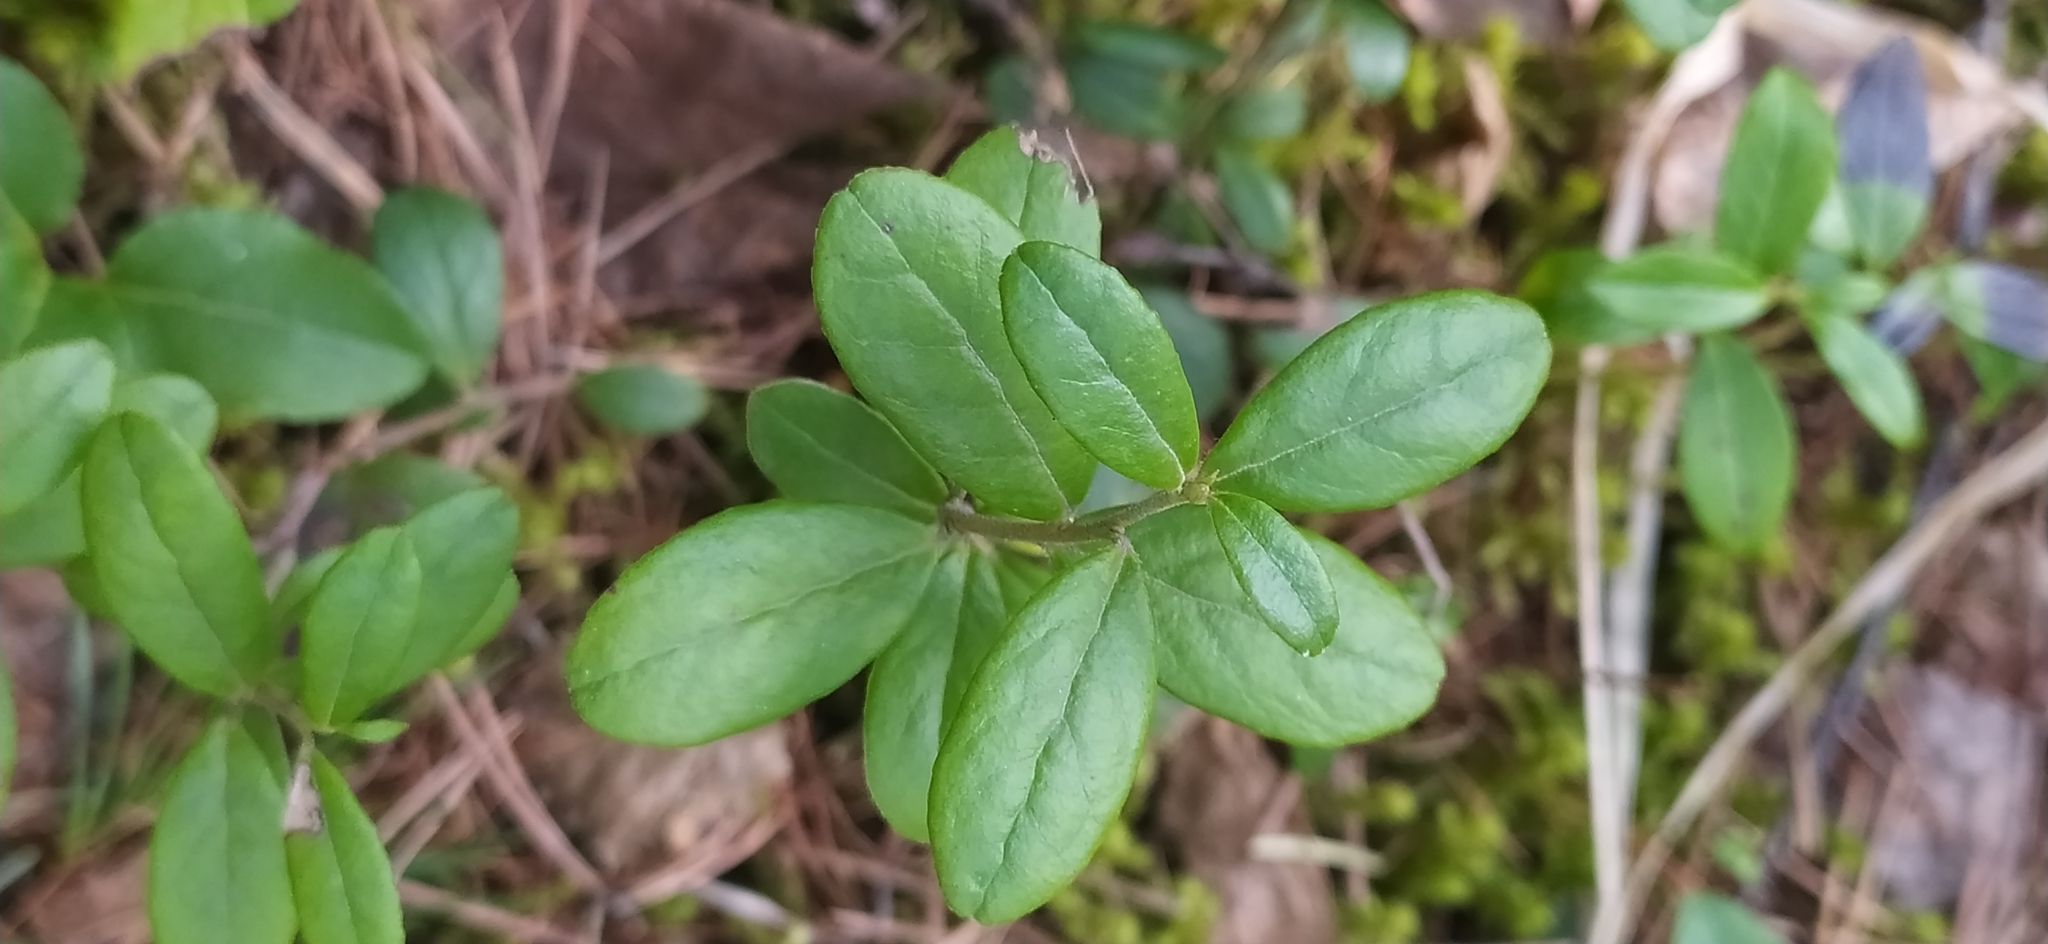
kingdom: Plantae
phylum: Tracheophyta
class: Magnoliopsida
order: Ericales
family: Ericaceae
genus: Vaccinium
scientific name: Vaccinium vitis-idaea
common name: Cowberry
